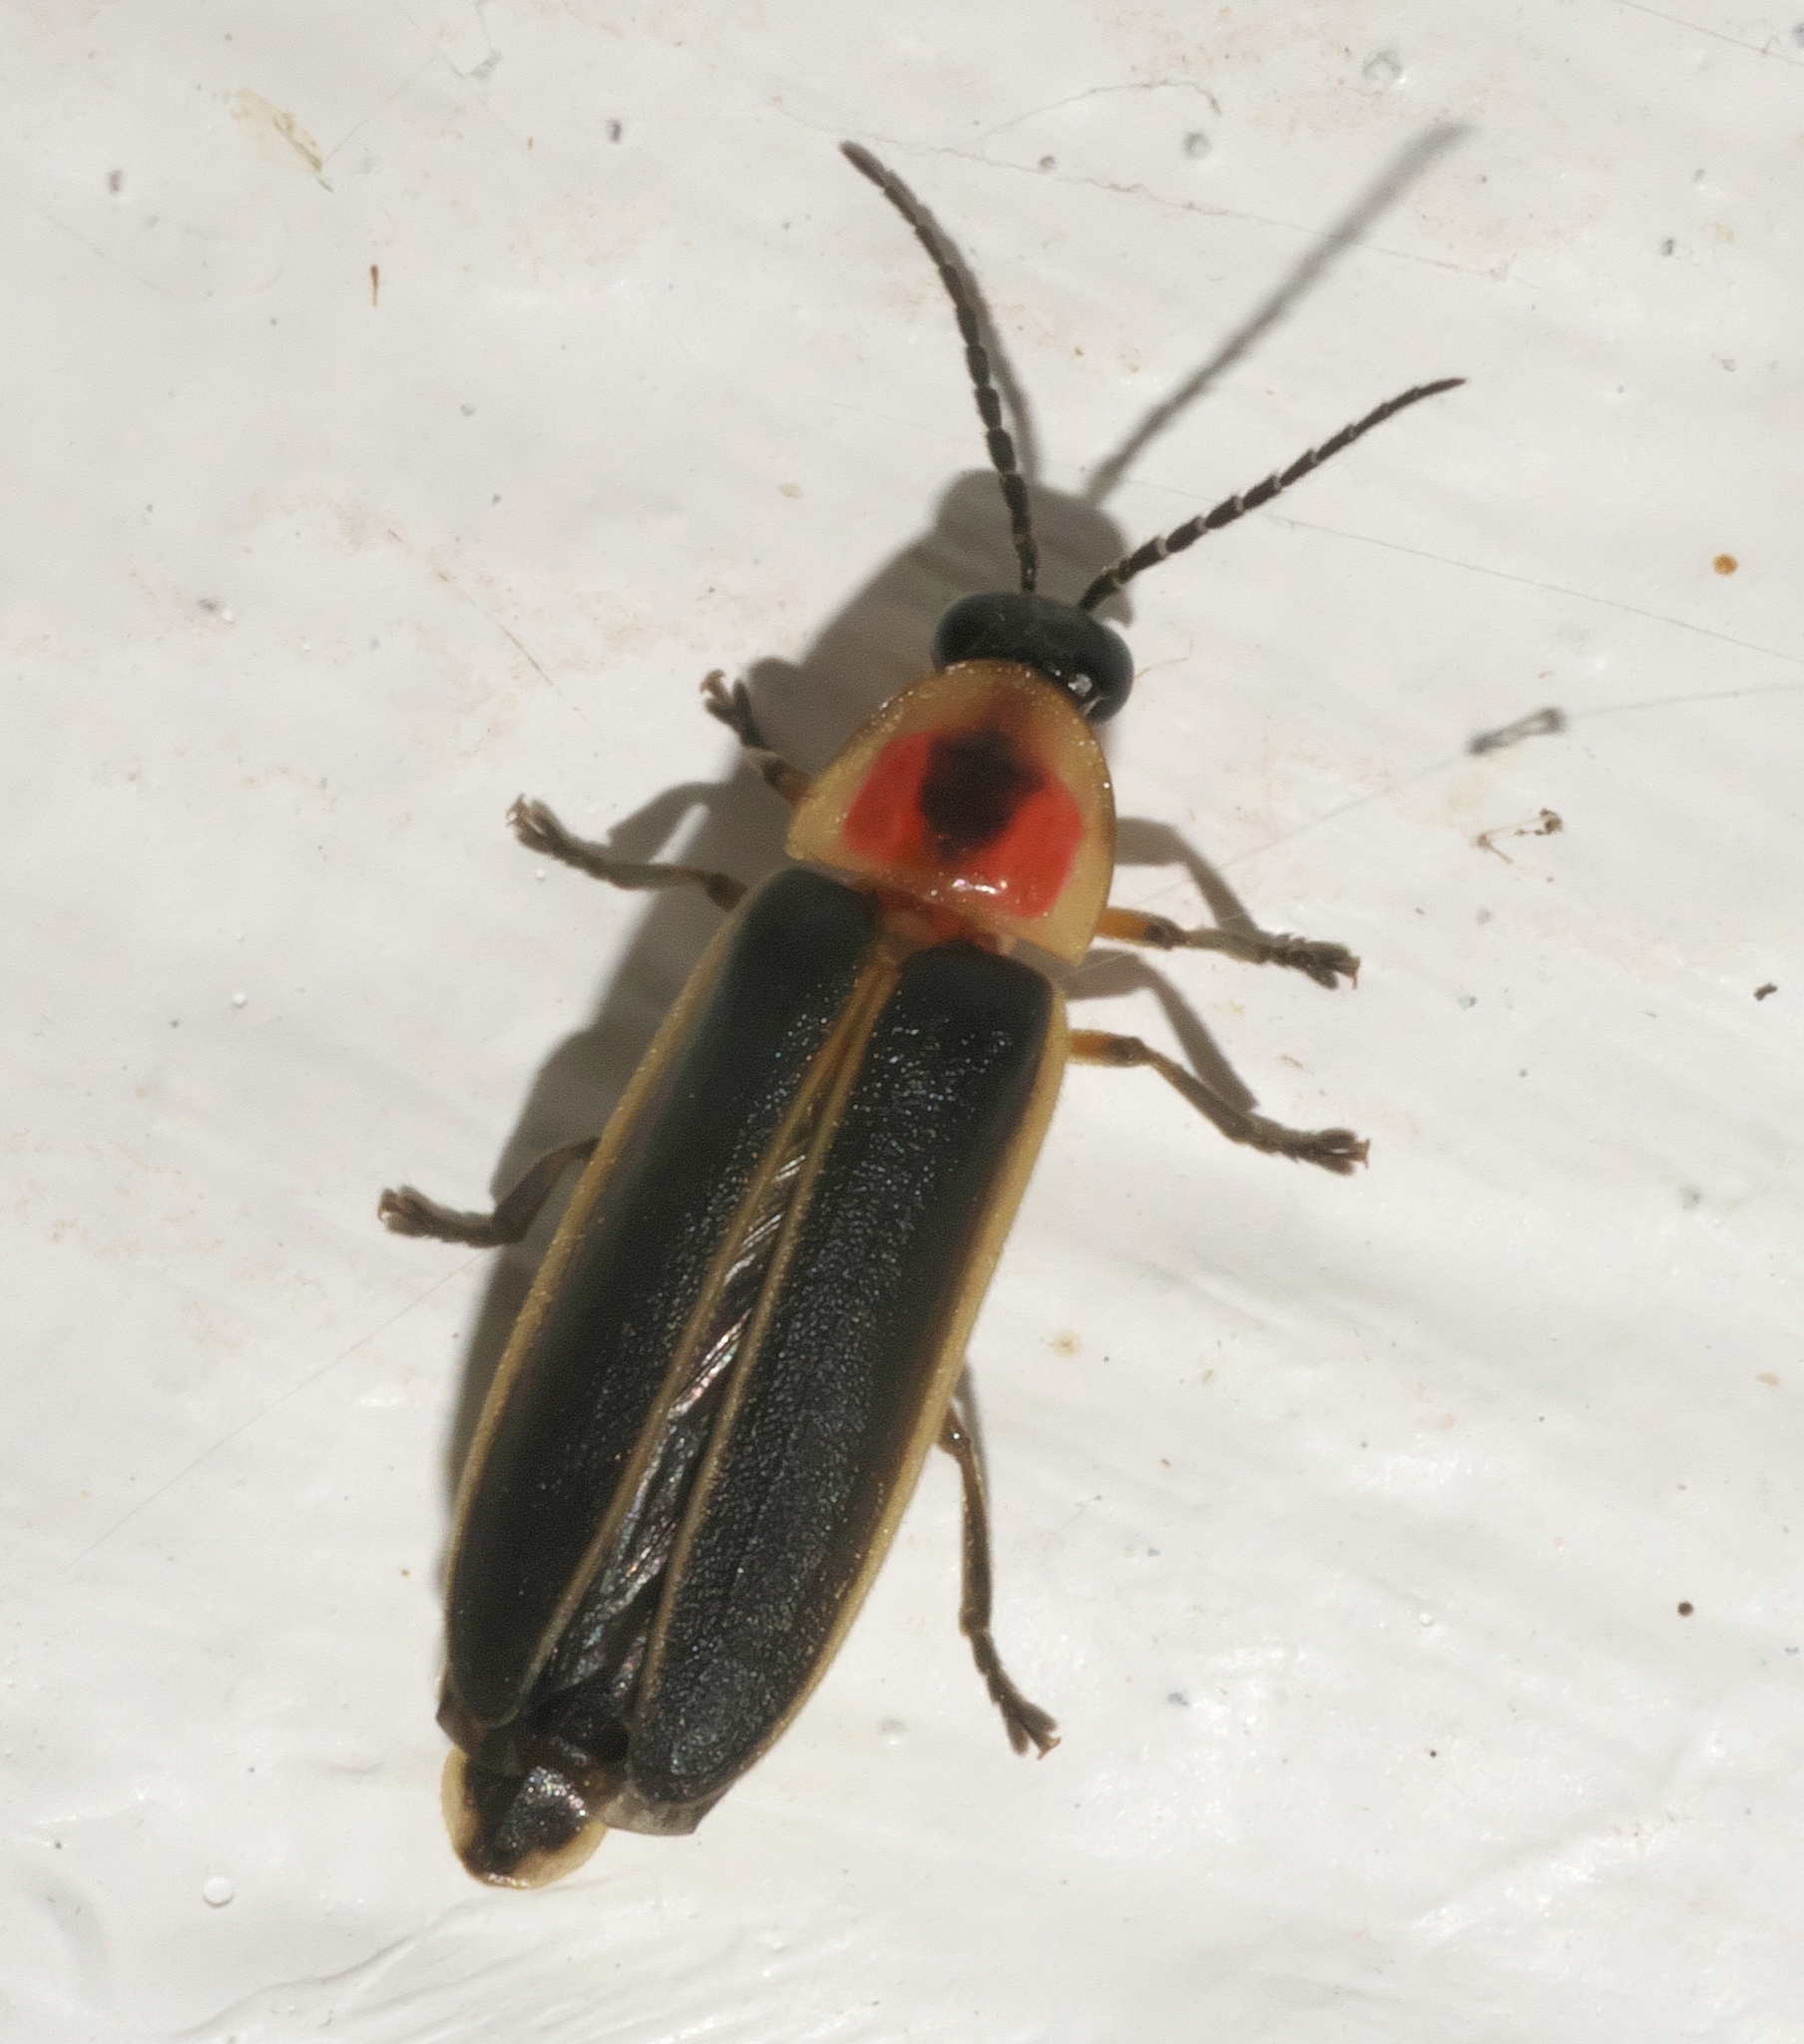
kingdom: Animalia
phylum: Arthropoda
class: Insecta
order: Coleoptera
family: Lampyridae
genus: Photinus
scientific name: Photinus pyralis
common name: Big dipper firefly
